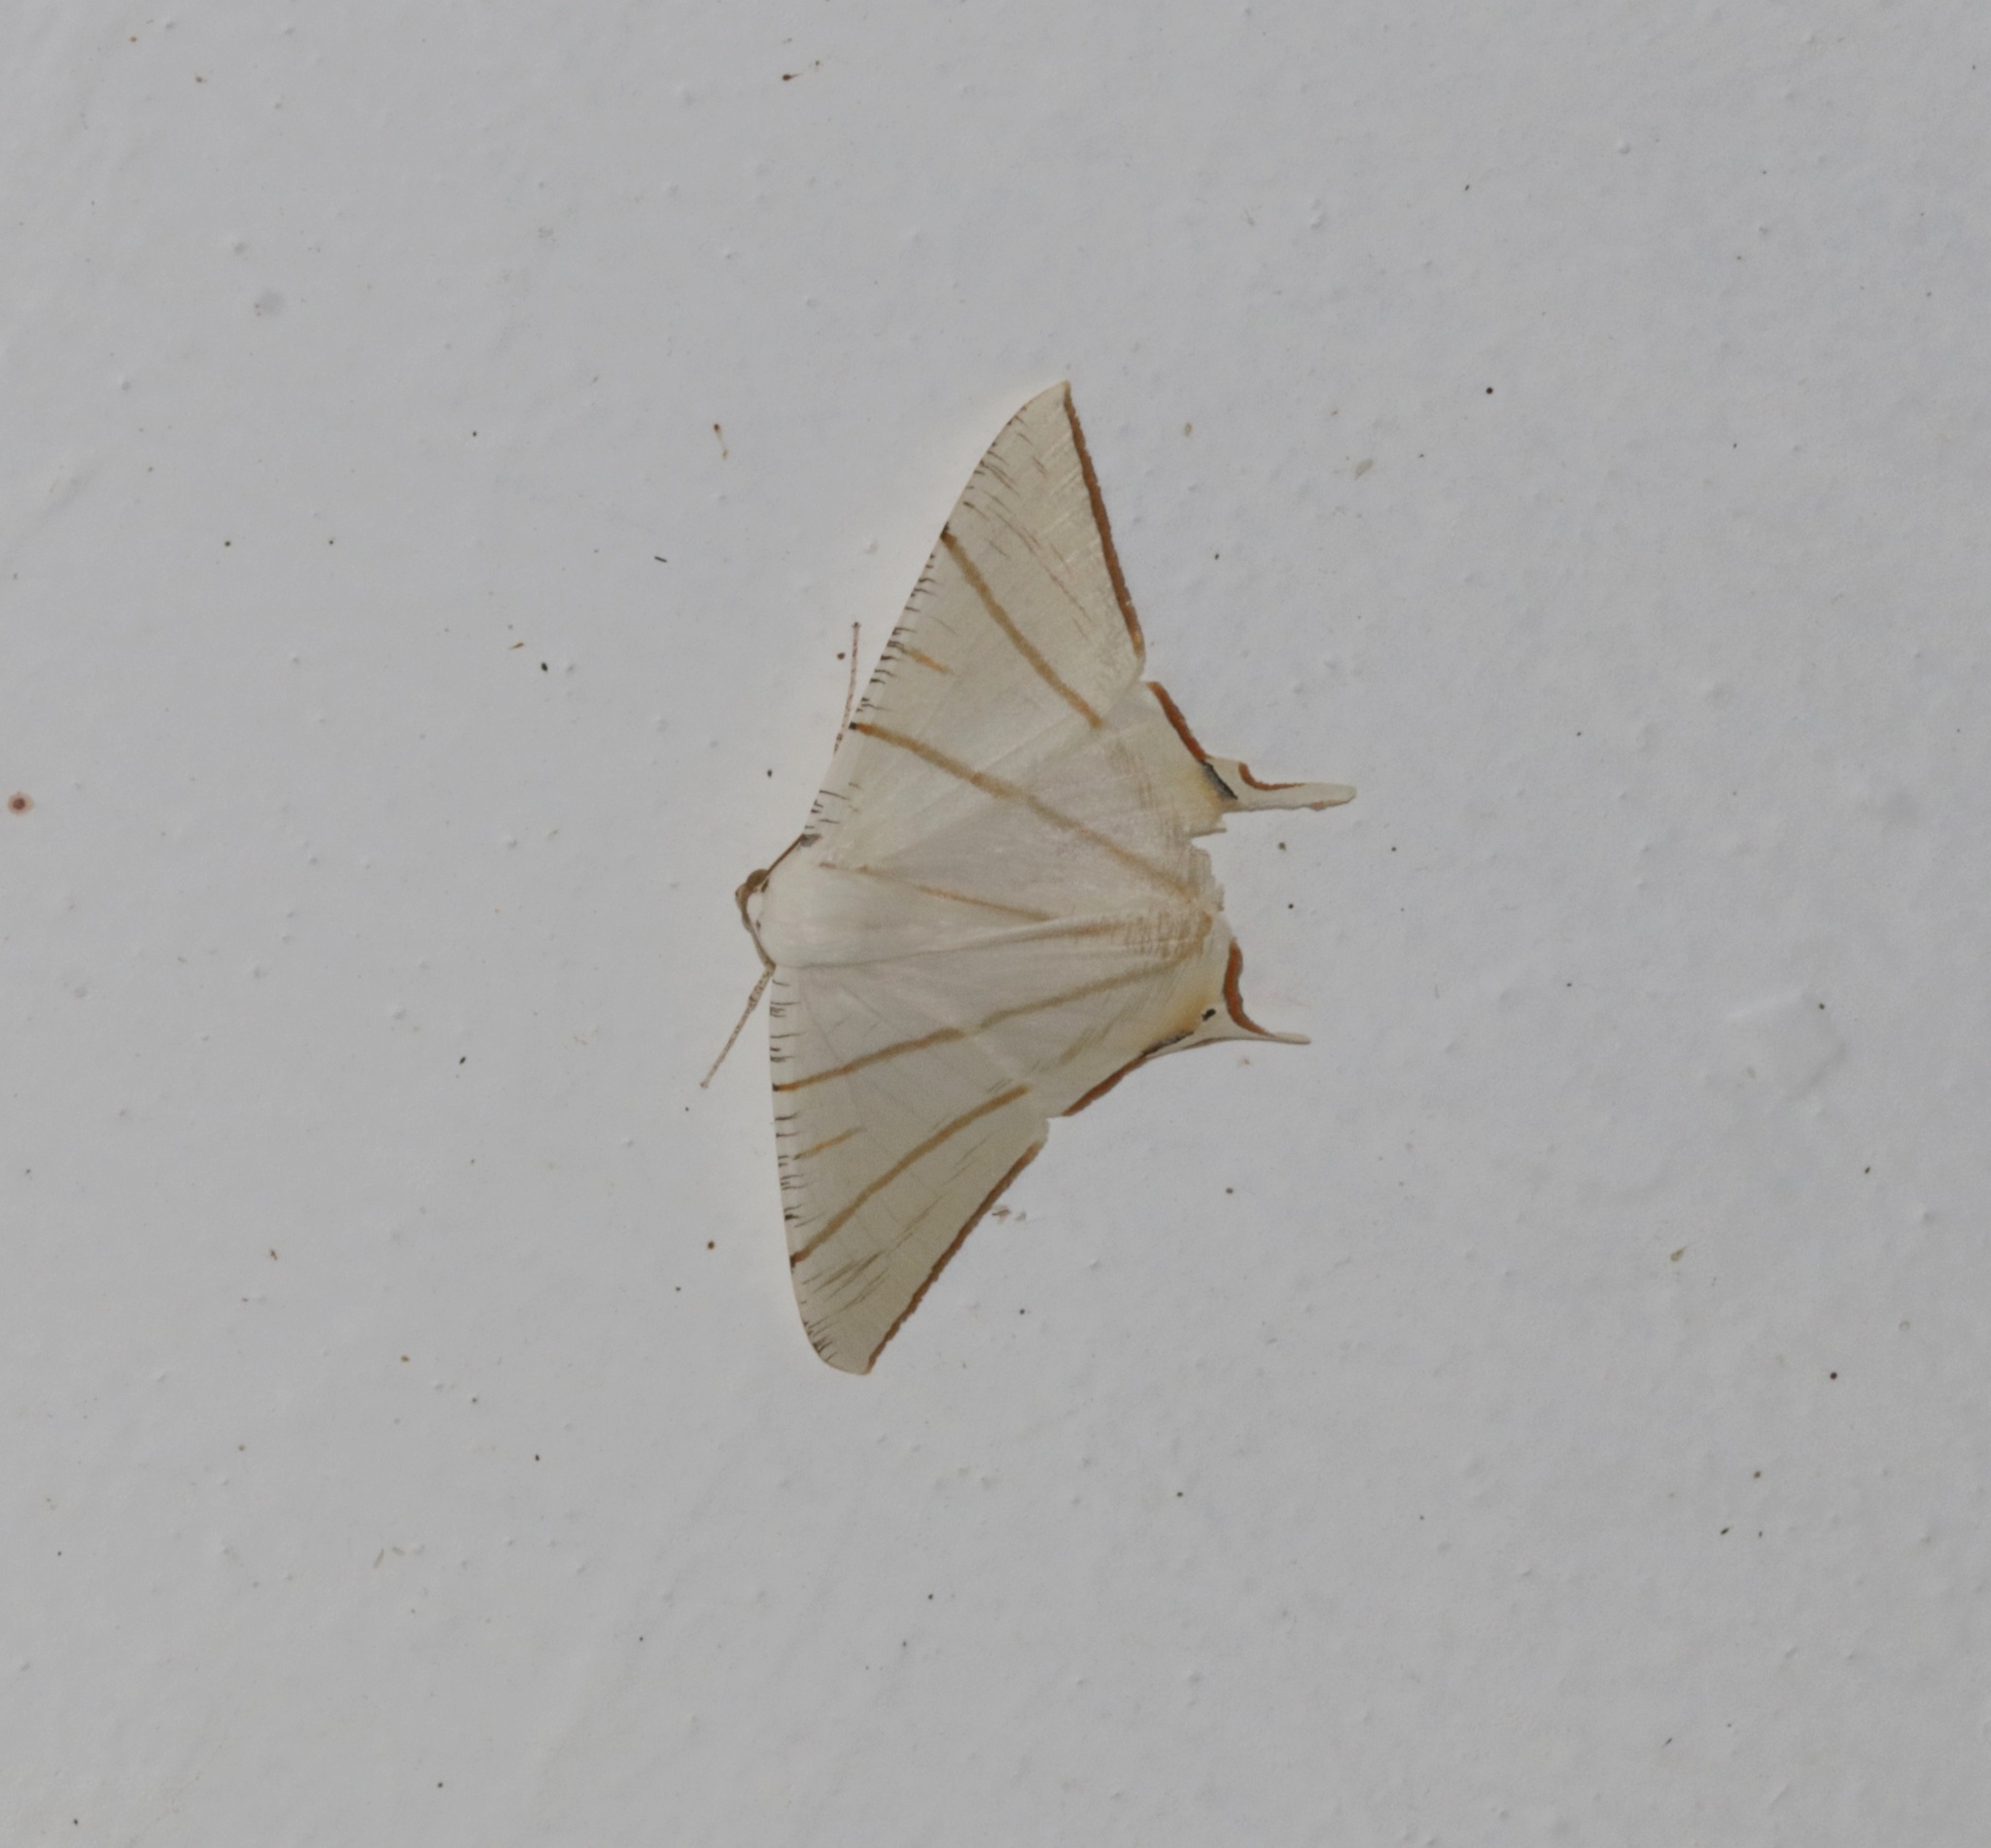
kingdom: Animalia
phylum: Arthropoda
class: Insecta
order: Lepidoptera
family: Geometridae
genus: Ourapteryx
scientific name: Ourapteryx clara
